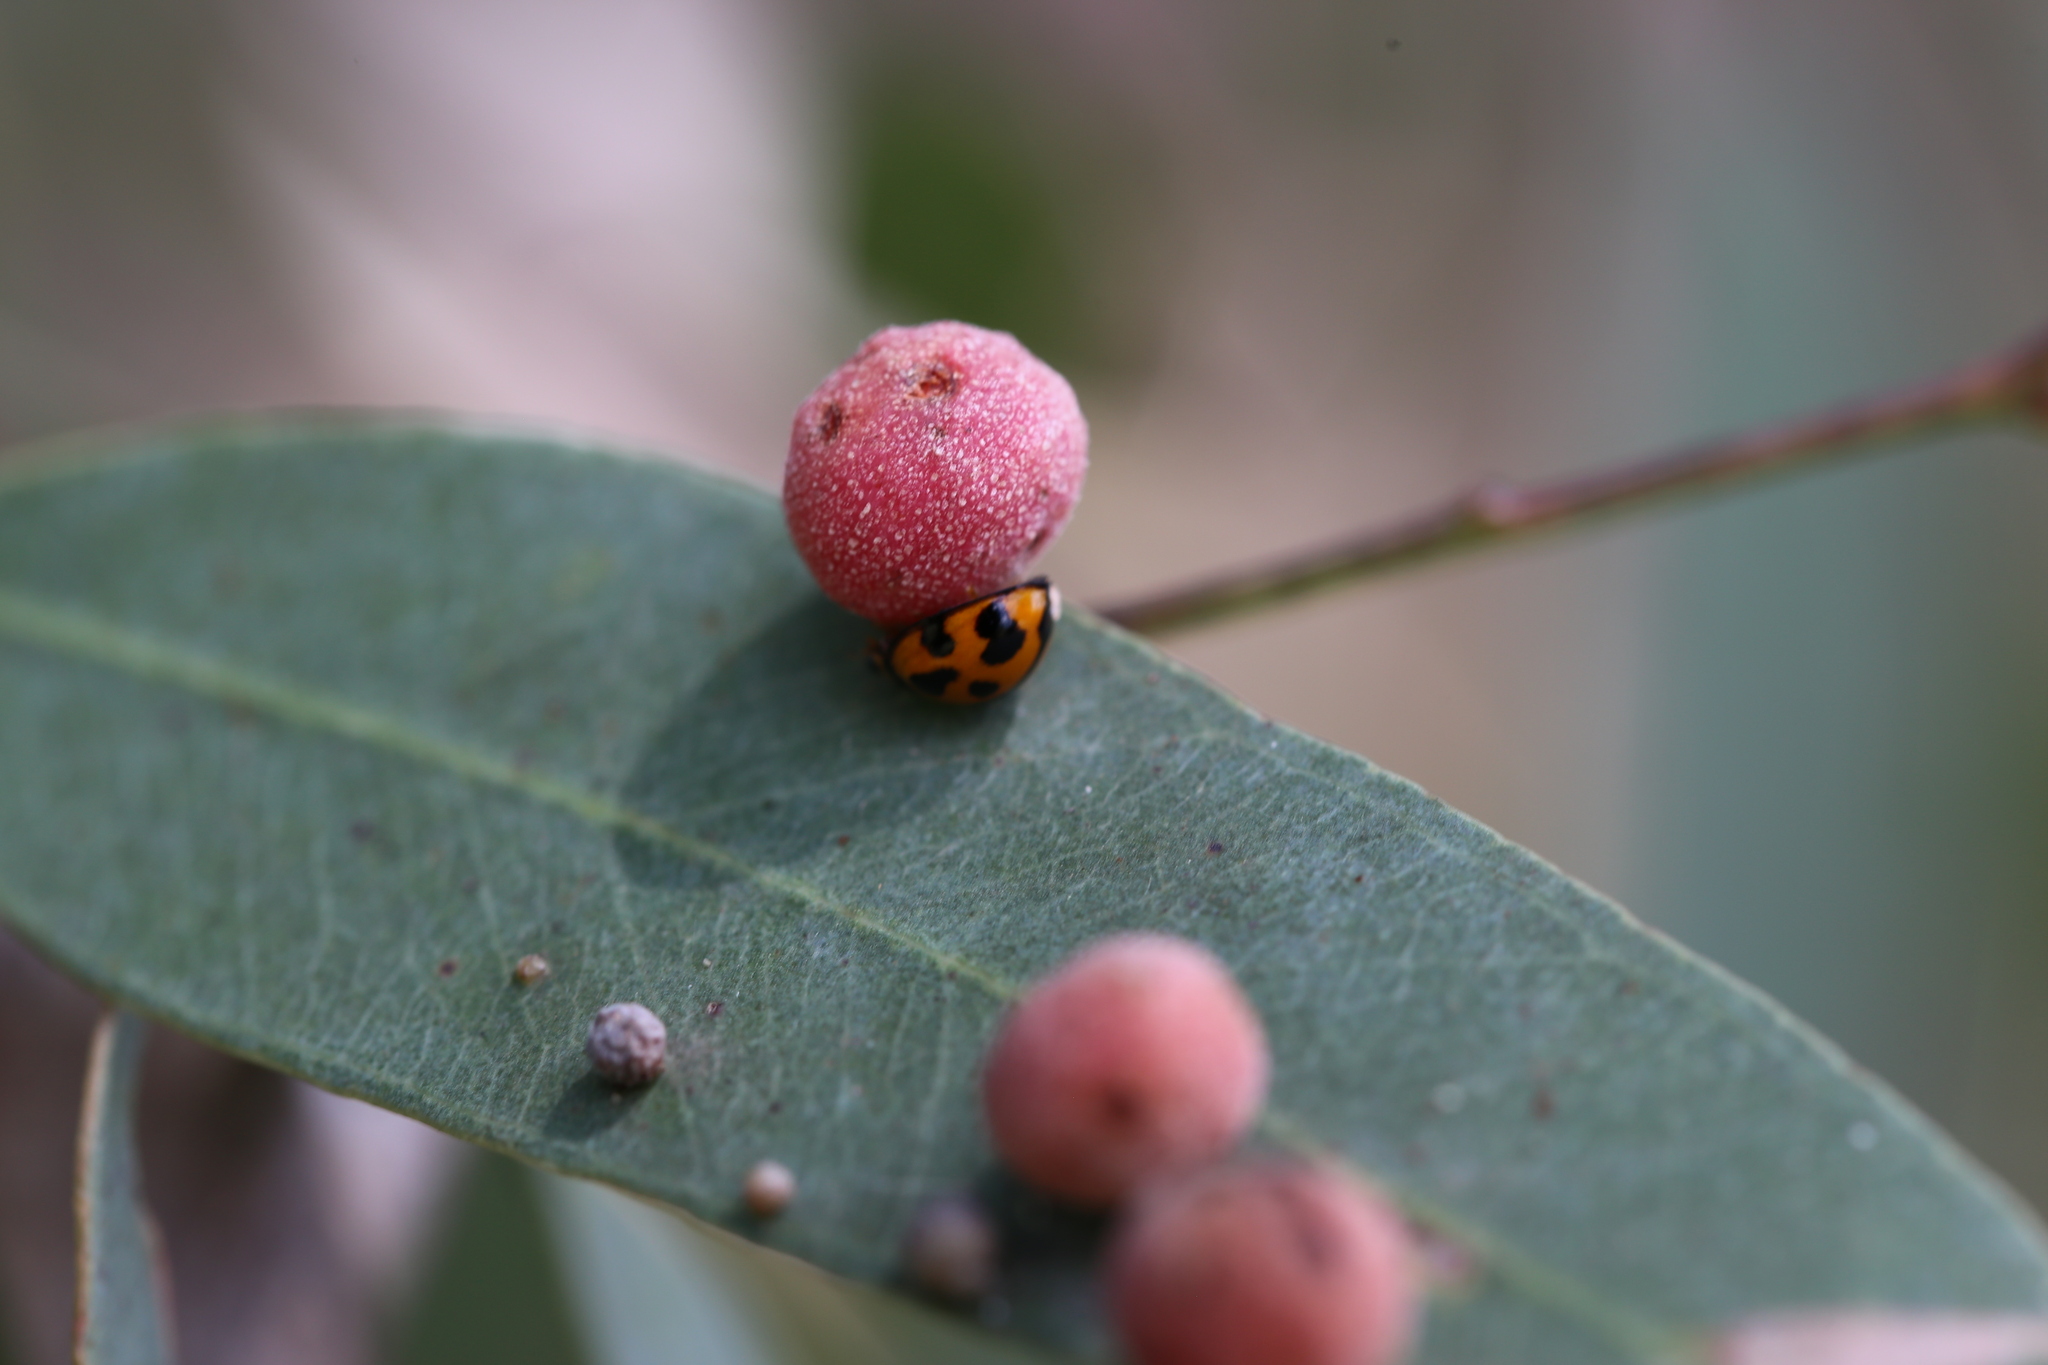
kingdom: Animalia
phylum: Arthropoda
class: Insecta
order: Coleoptera
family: Coccinellidae
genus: Coelophora
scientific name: Coelophora inaequalis
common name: Common australian lady beetle
